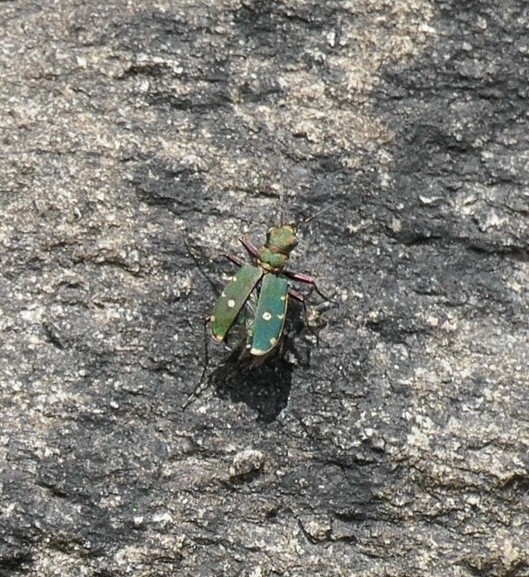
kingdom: Animalia
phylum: Arthropoda
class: Insecta
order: Coleoptera
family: Carabidae
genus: Cicindela
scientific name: Cicindela campestris
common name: Common tiger beetle
